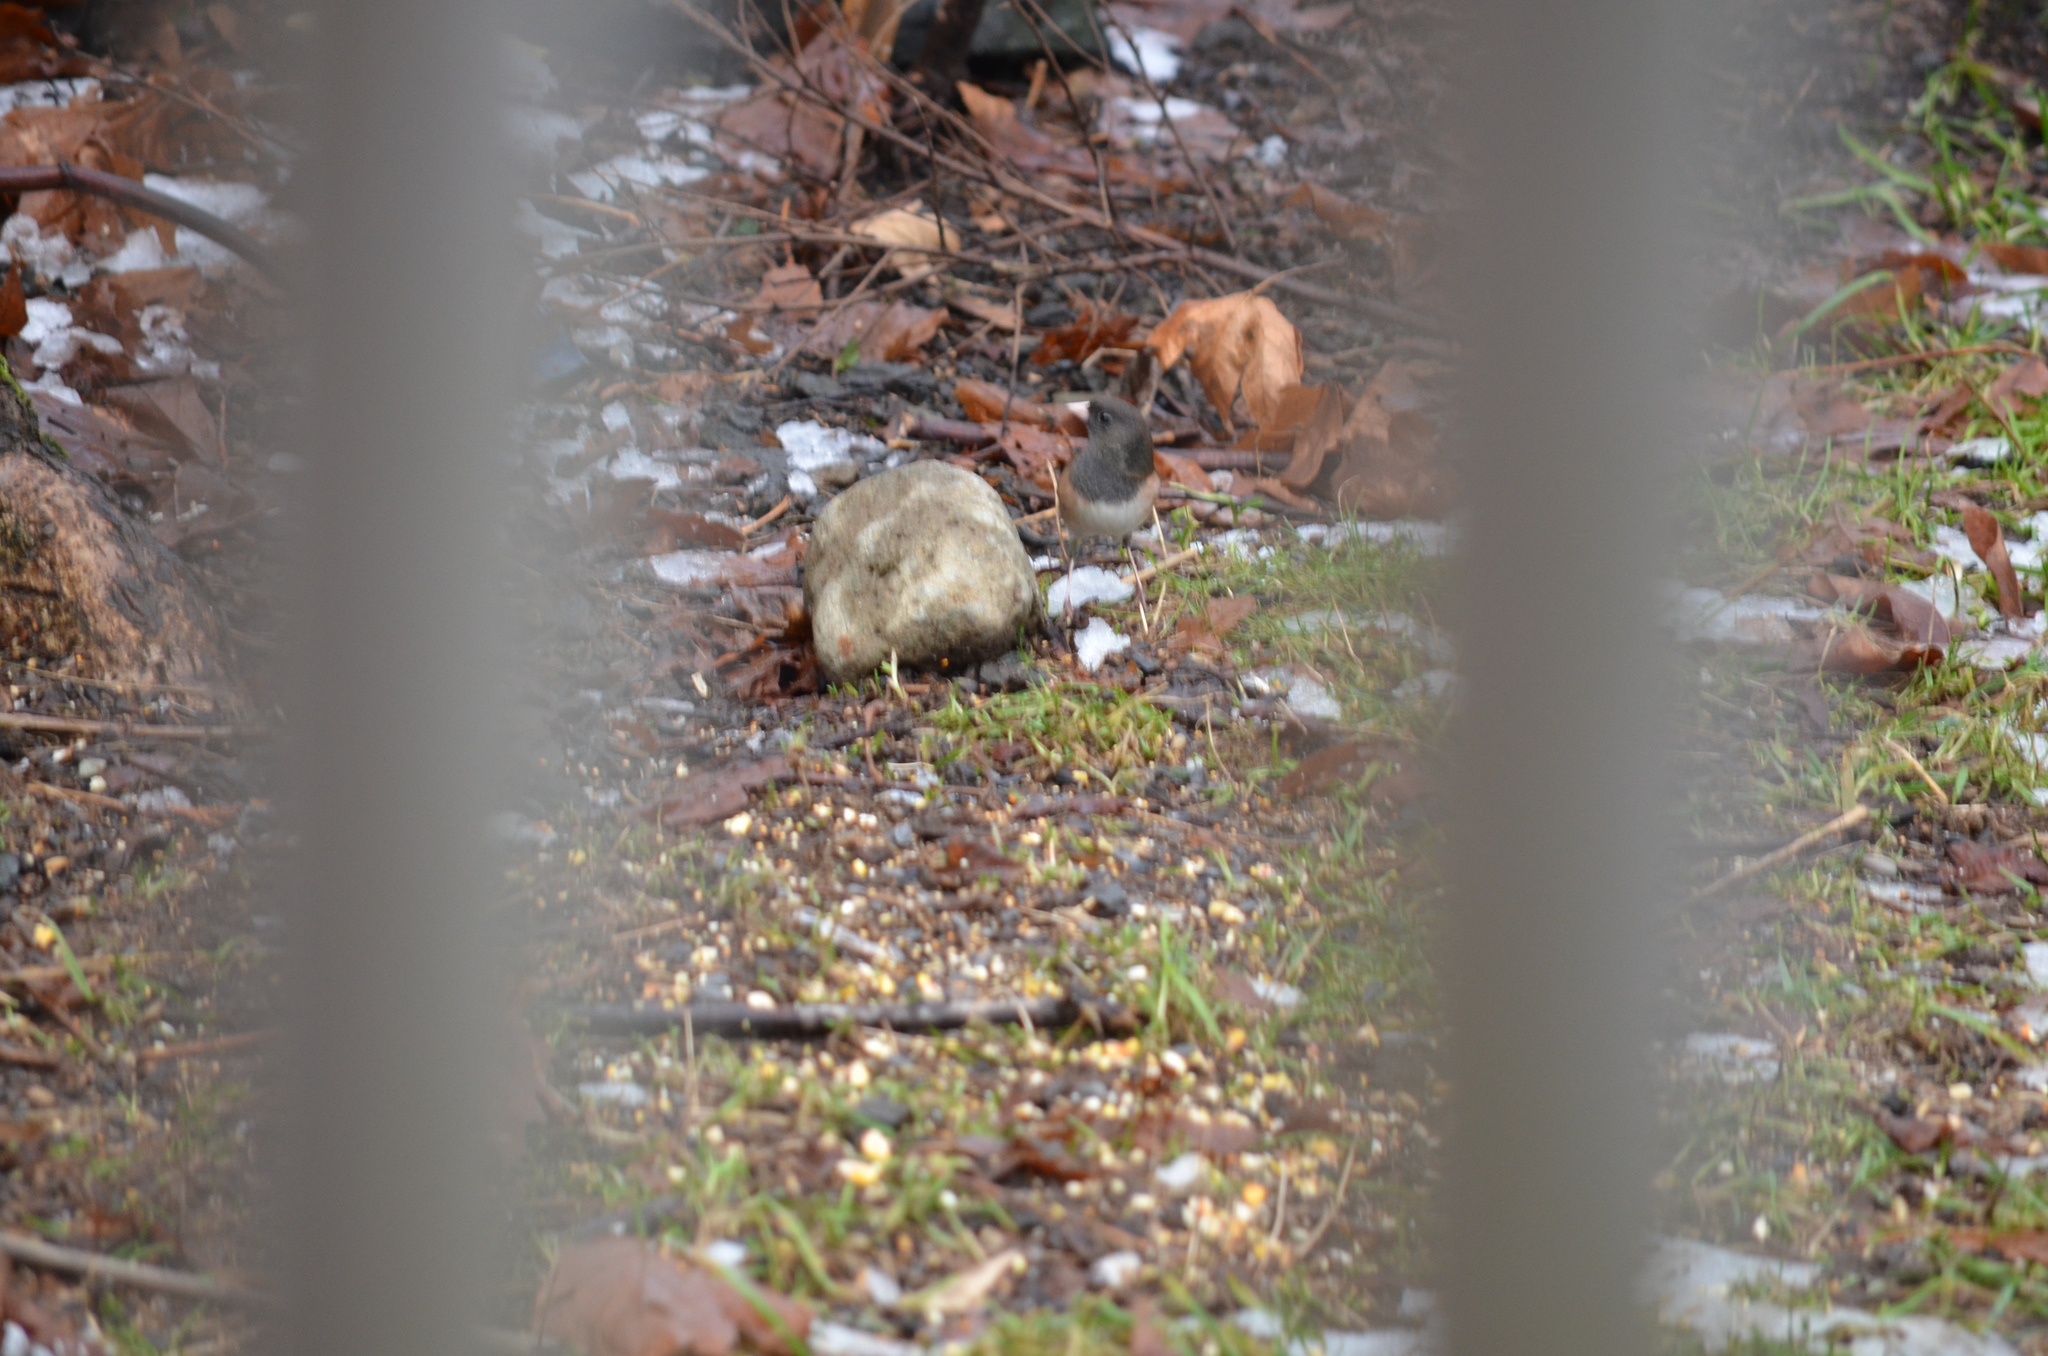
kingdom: Animalia
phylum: Chordata
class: Aves
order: Passeriformes
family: Passerellidae
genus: Junco
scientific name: Junco hyemalis
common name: Dark-eyed junco
